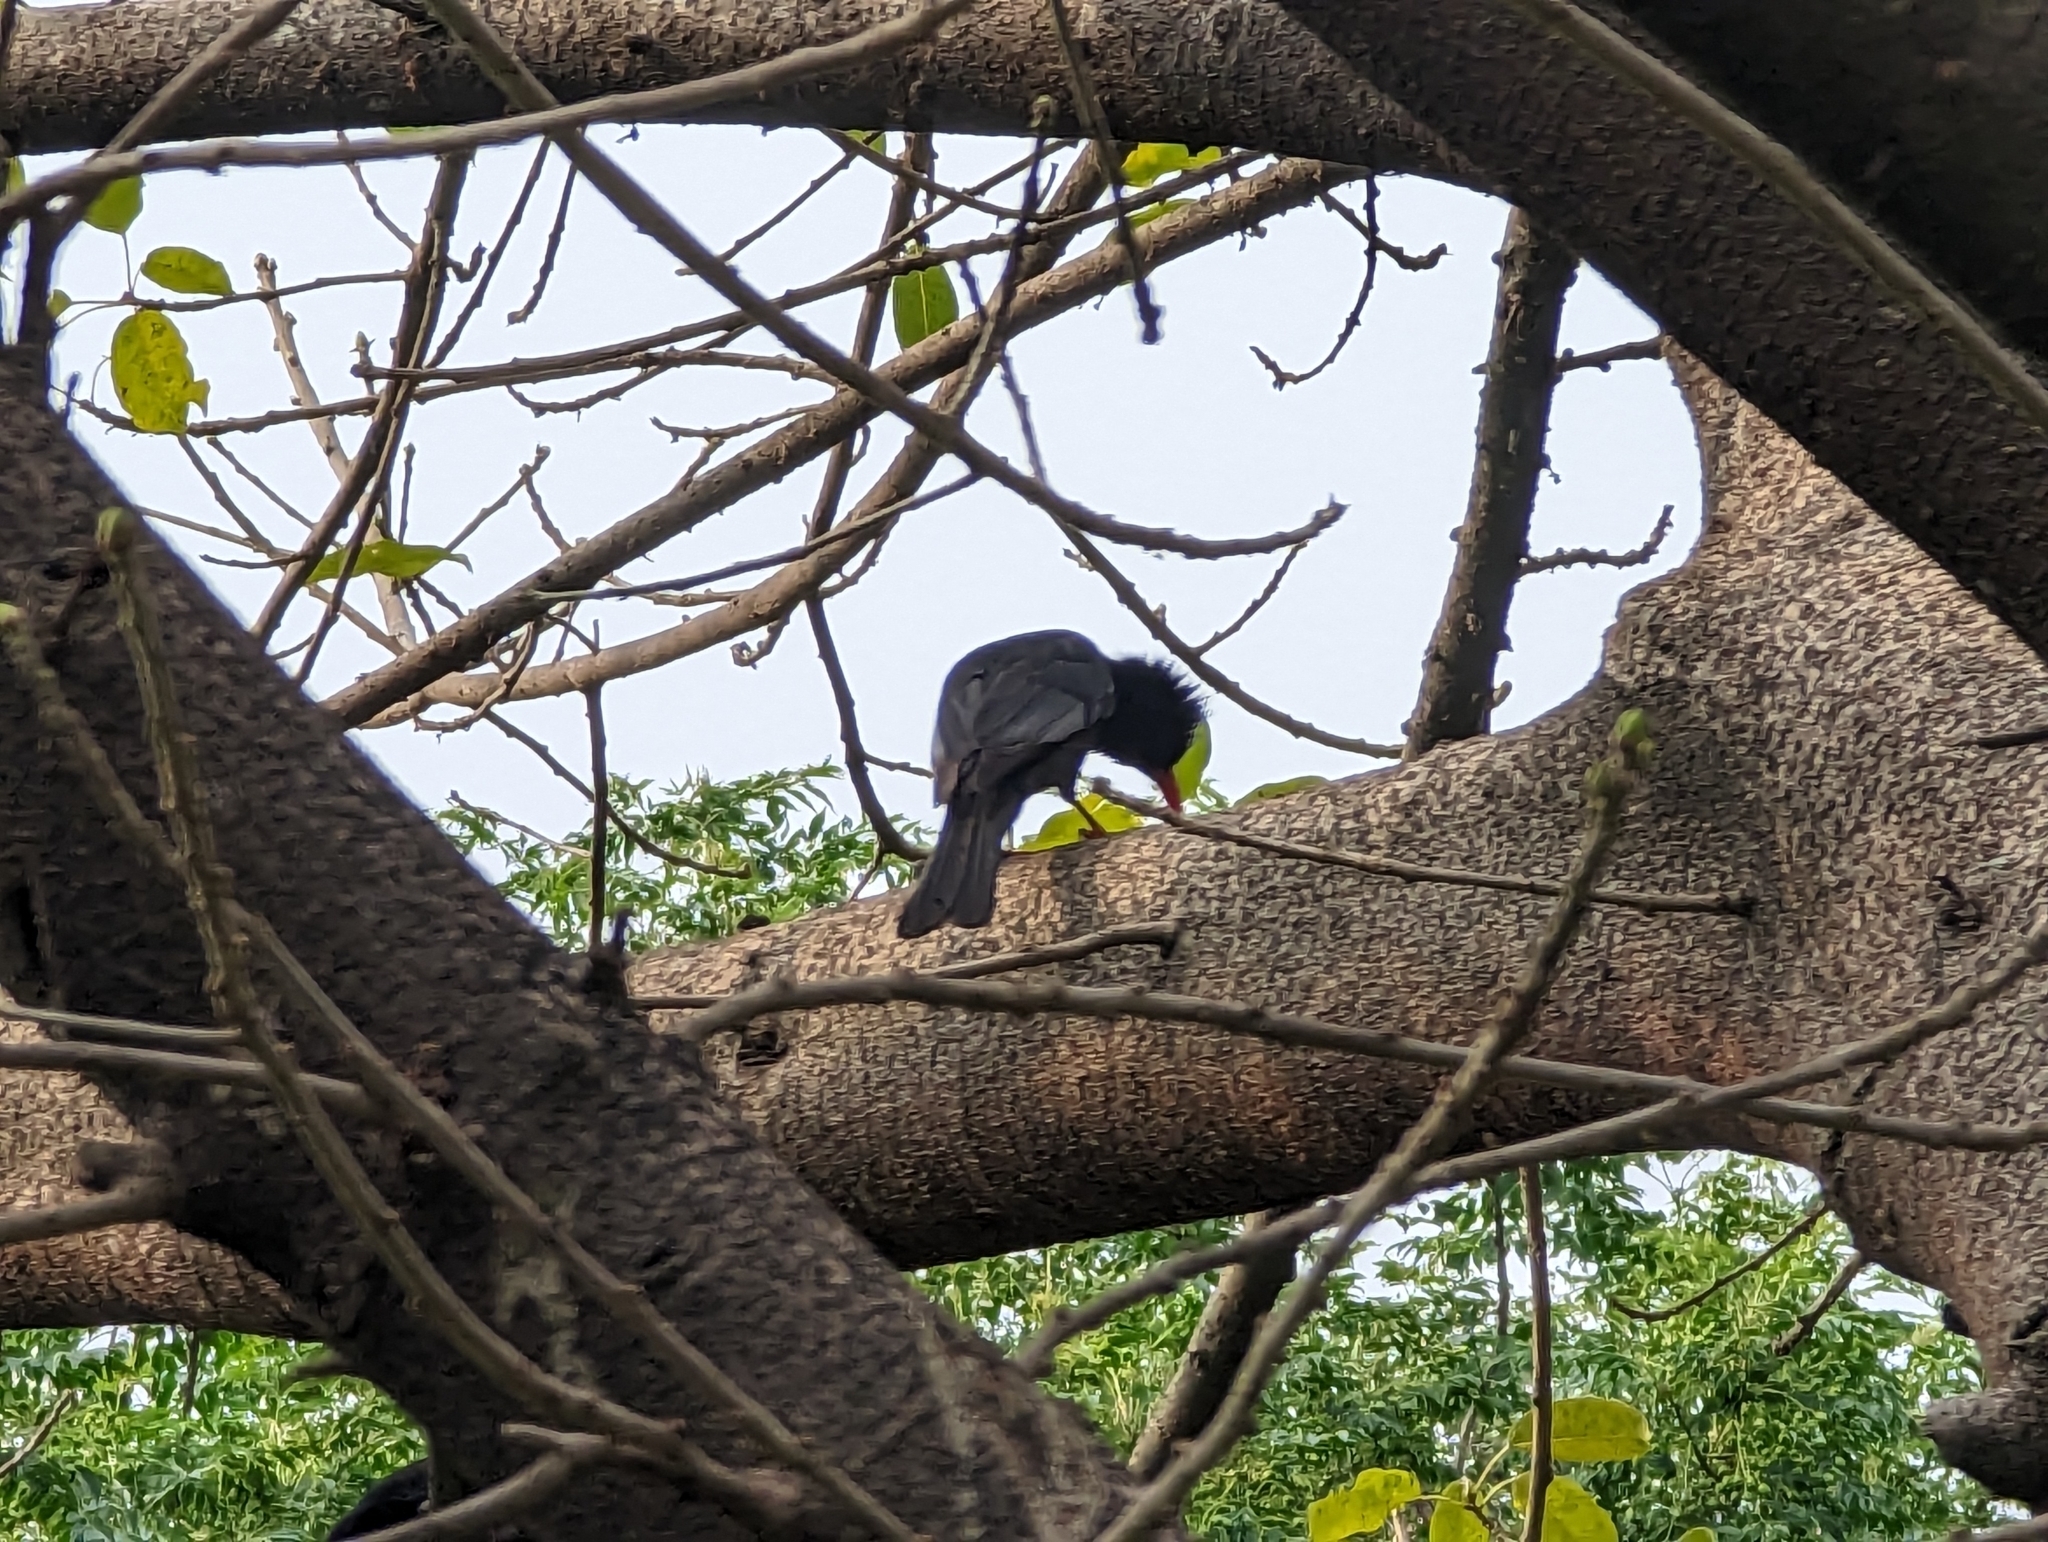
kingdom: Animalia
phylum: Chordata
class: Aves
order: Passeriformes
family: Pycnonotidae
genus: Hypsipetes
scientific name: Hypsipetes leucocephalus
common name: Black bulbul
